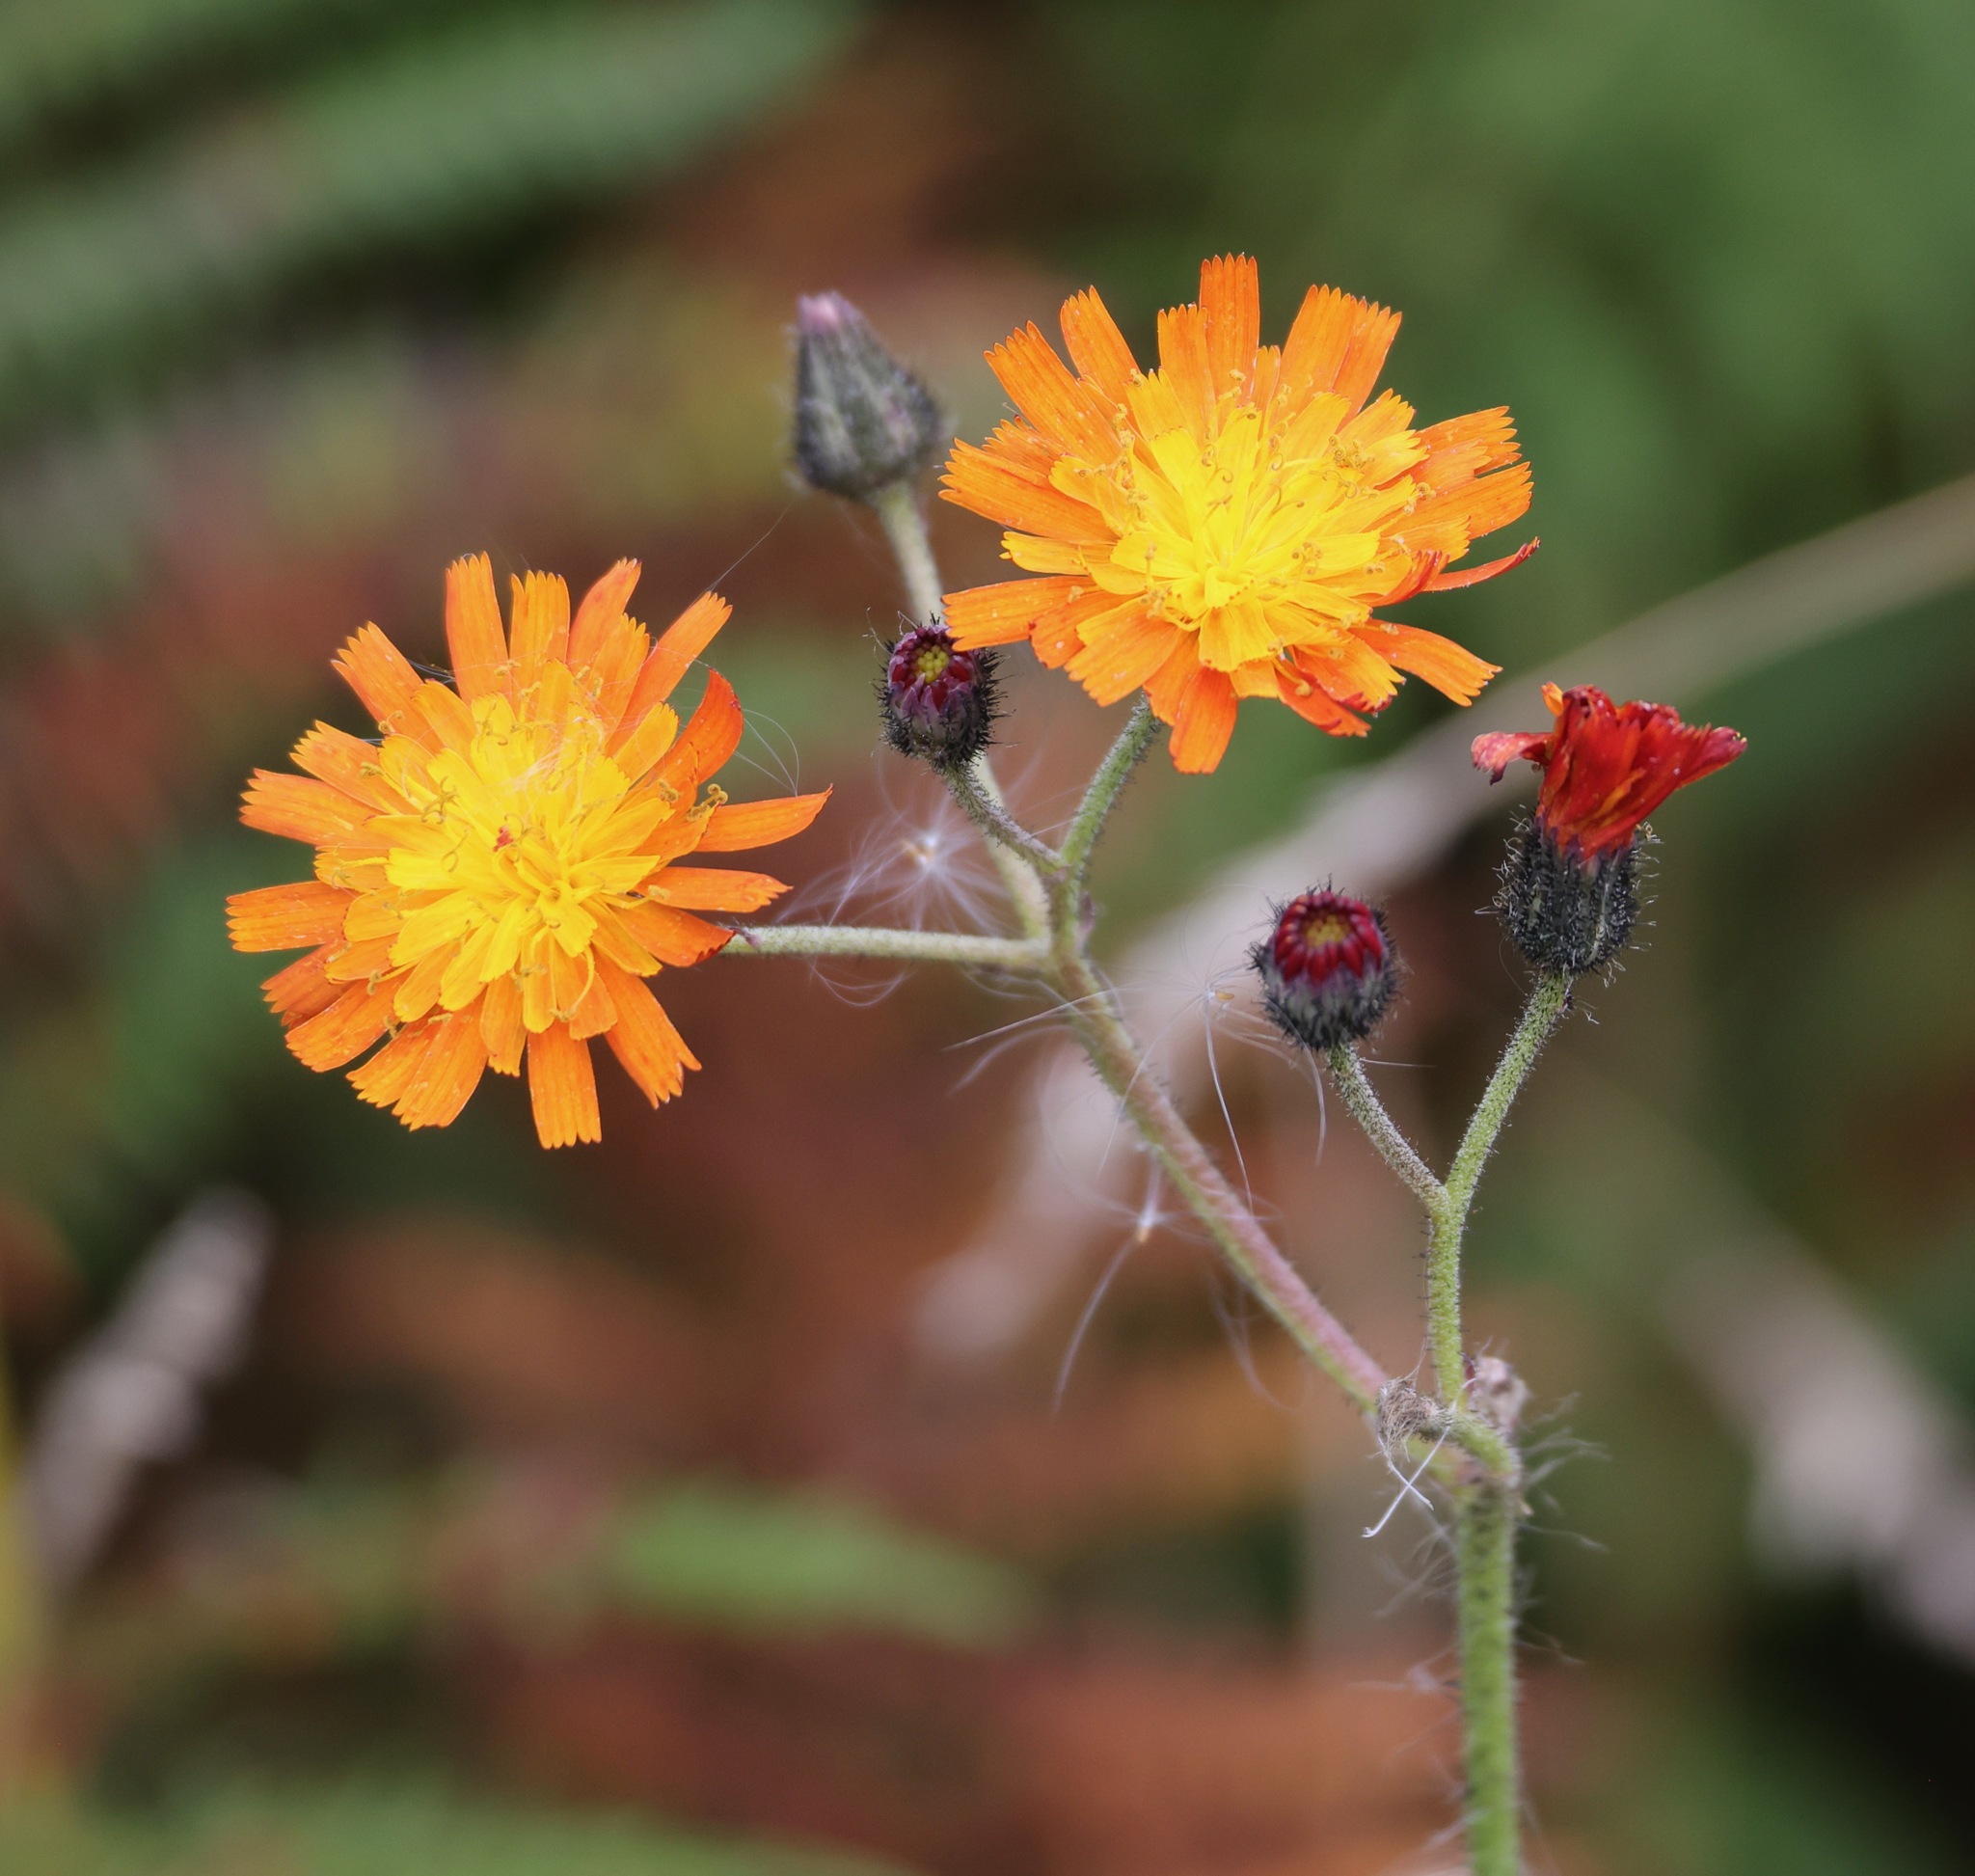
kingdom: Plantae
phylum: Tracheophyta
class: Magnoliopsida
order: Asterales
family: Asteraceae
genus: Pilosella
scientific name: Pilosella aurantiaca
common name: Fox-and-cubs
